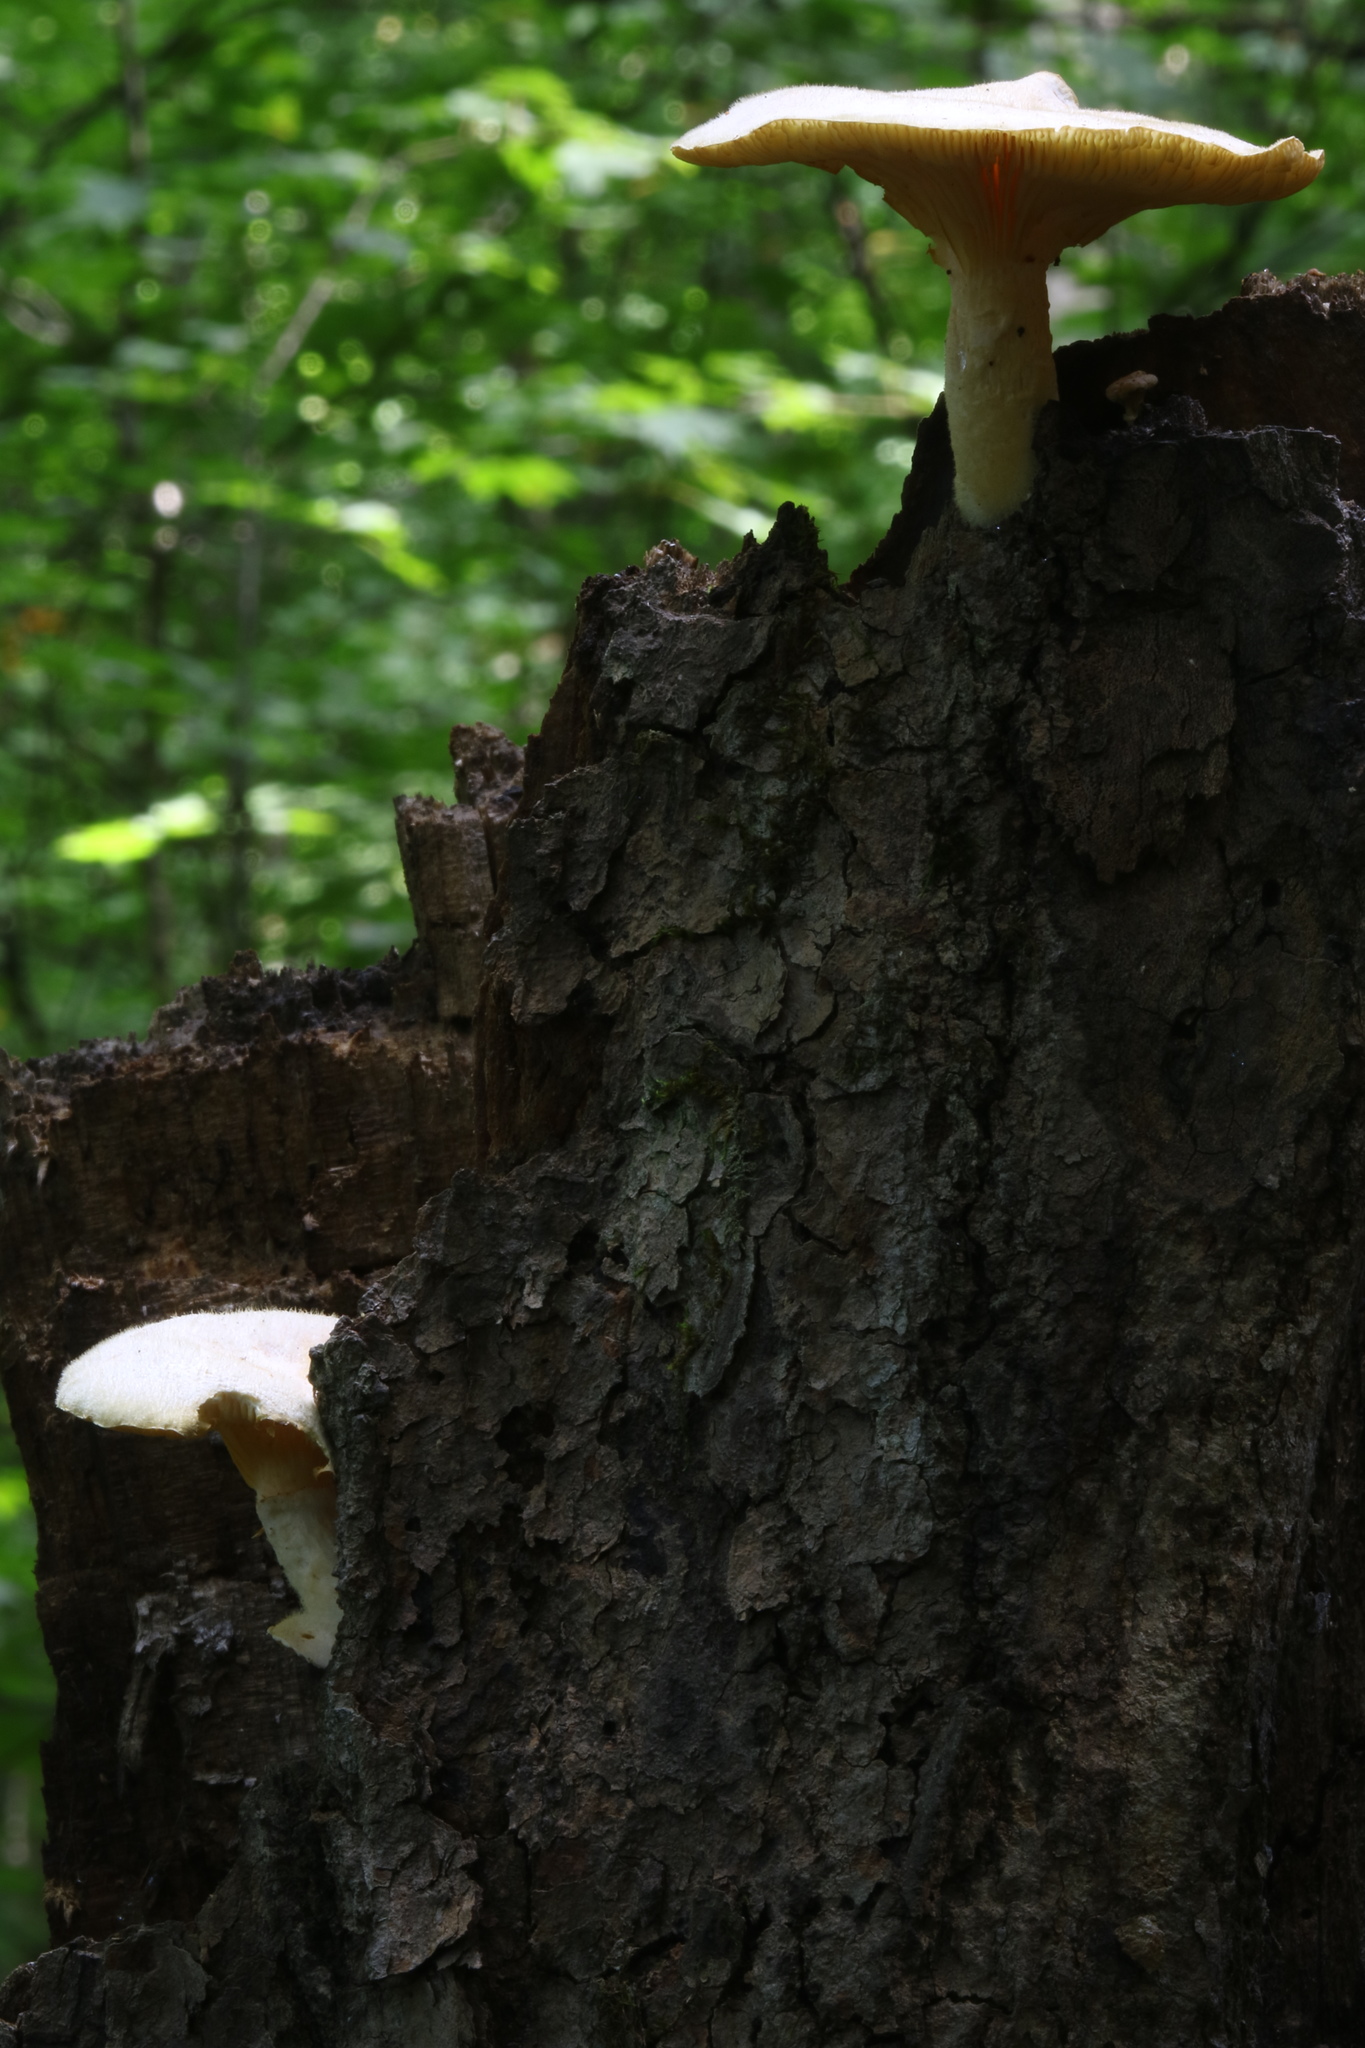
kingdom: Fungi
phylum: Basidiomycota
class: Agaricomycetes
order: Polyporales
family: Polyporaceae
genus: Lentinus
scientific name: Lentinus levis
